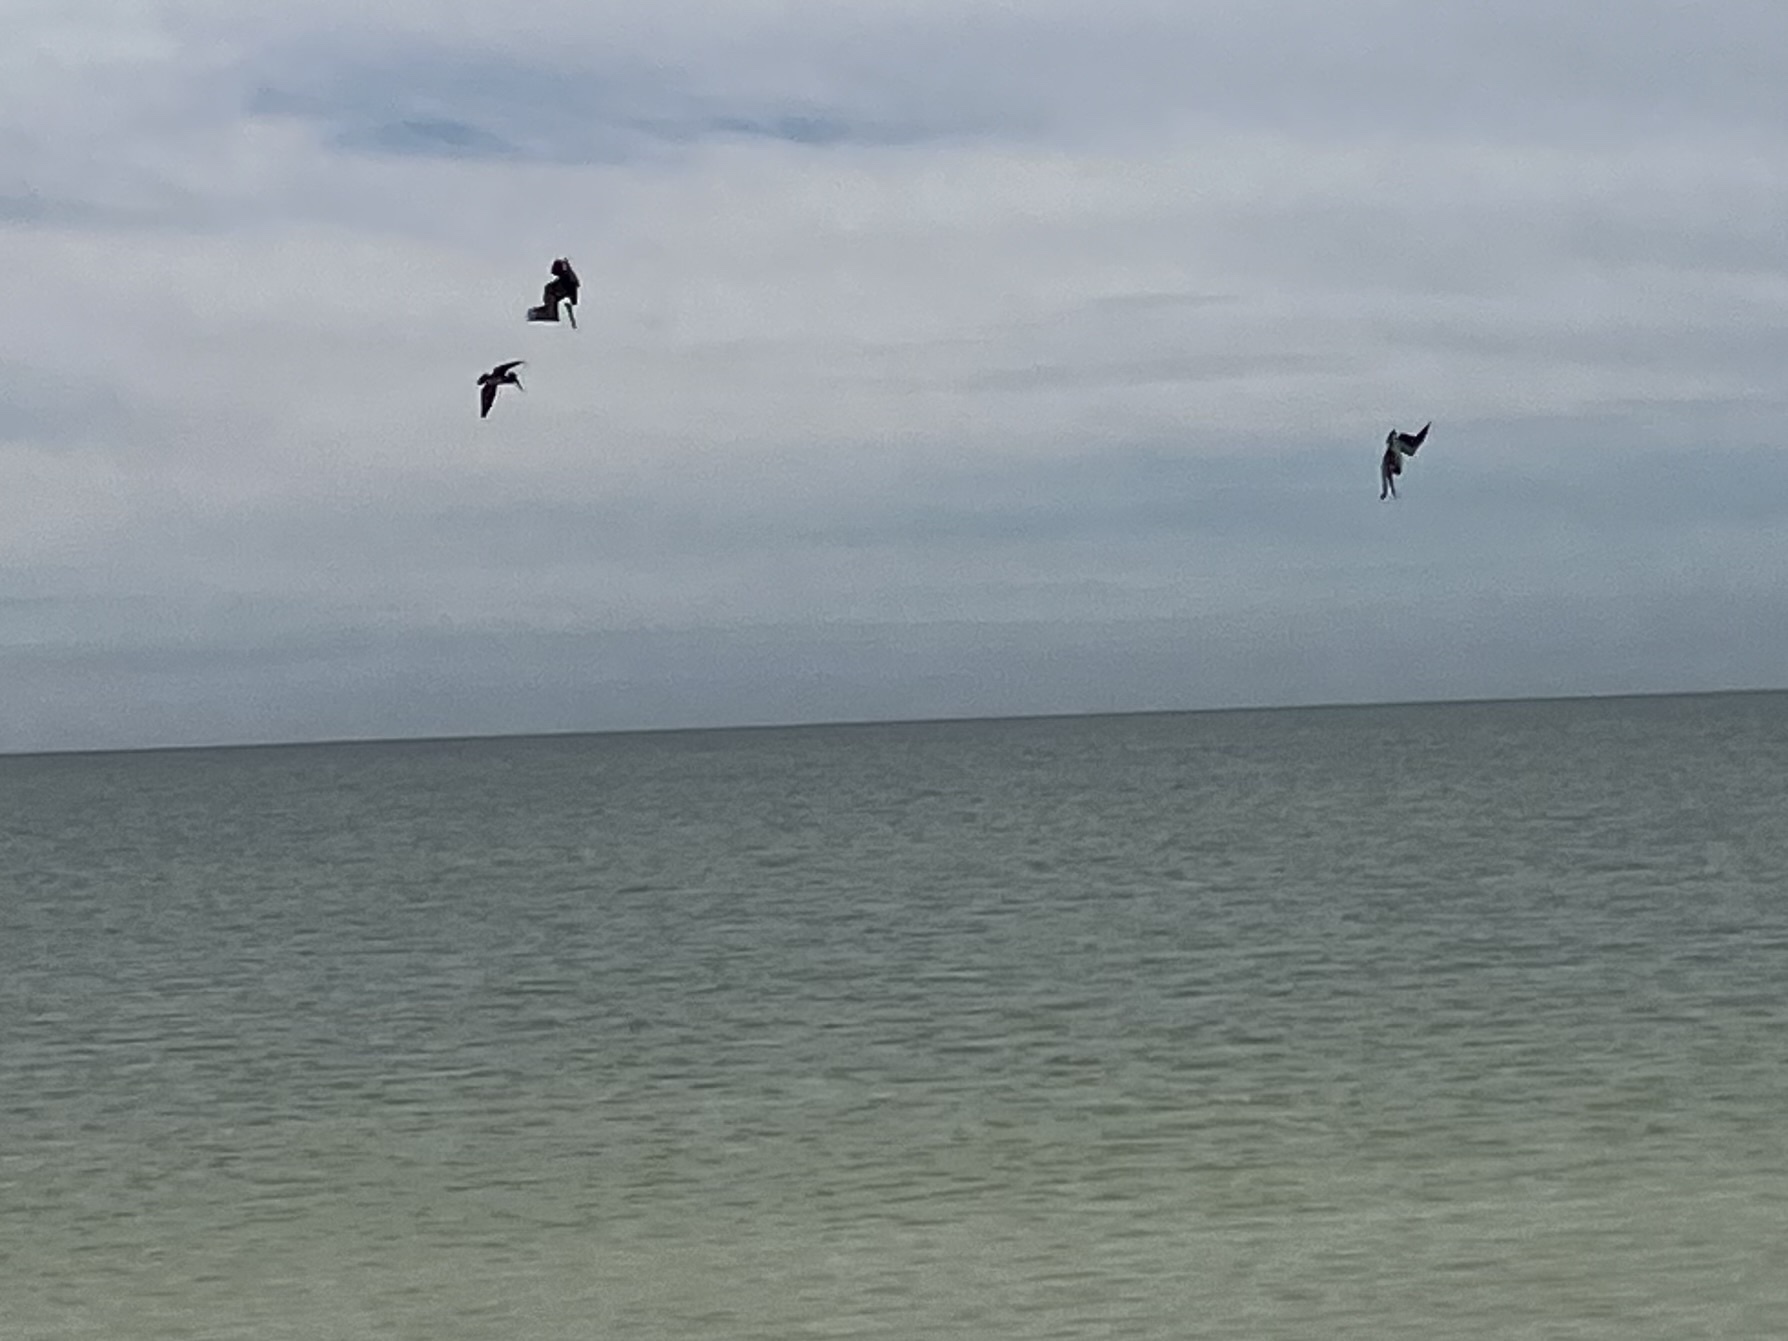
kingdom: Animalia
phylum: Chordata
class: Aves
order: Pelecaniformes
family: Pelecanidae
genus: Pelecanus
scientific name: Pelecanus occidentalis
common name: Brown pelican
